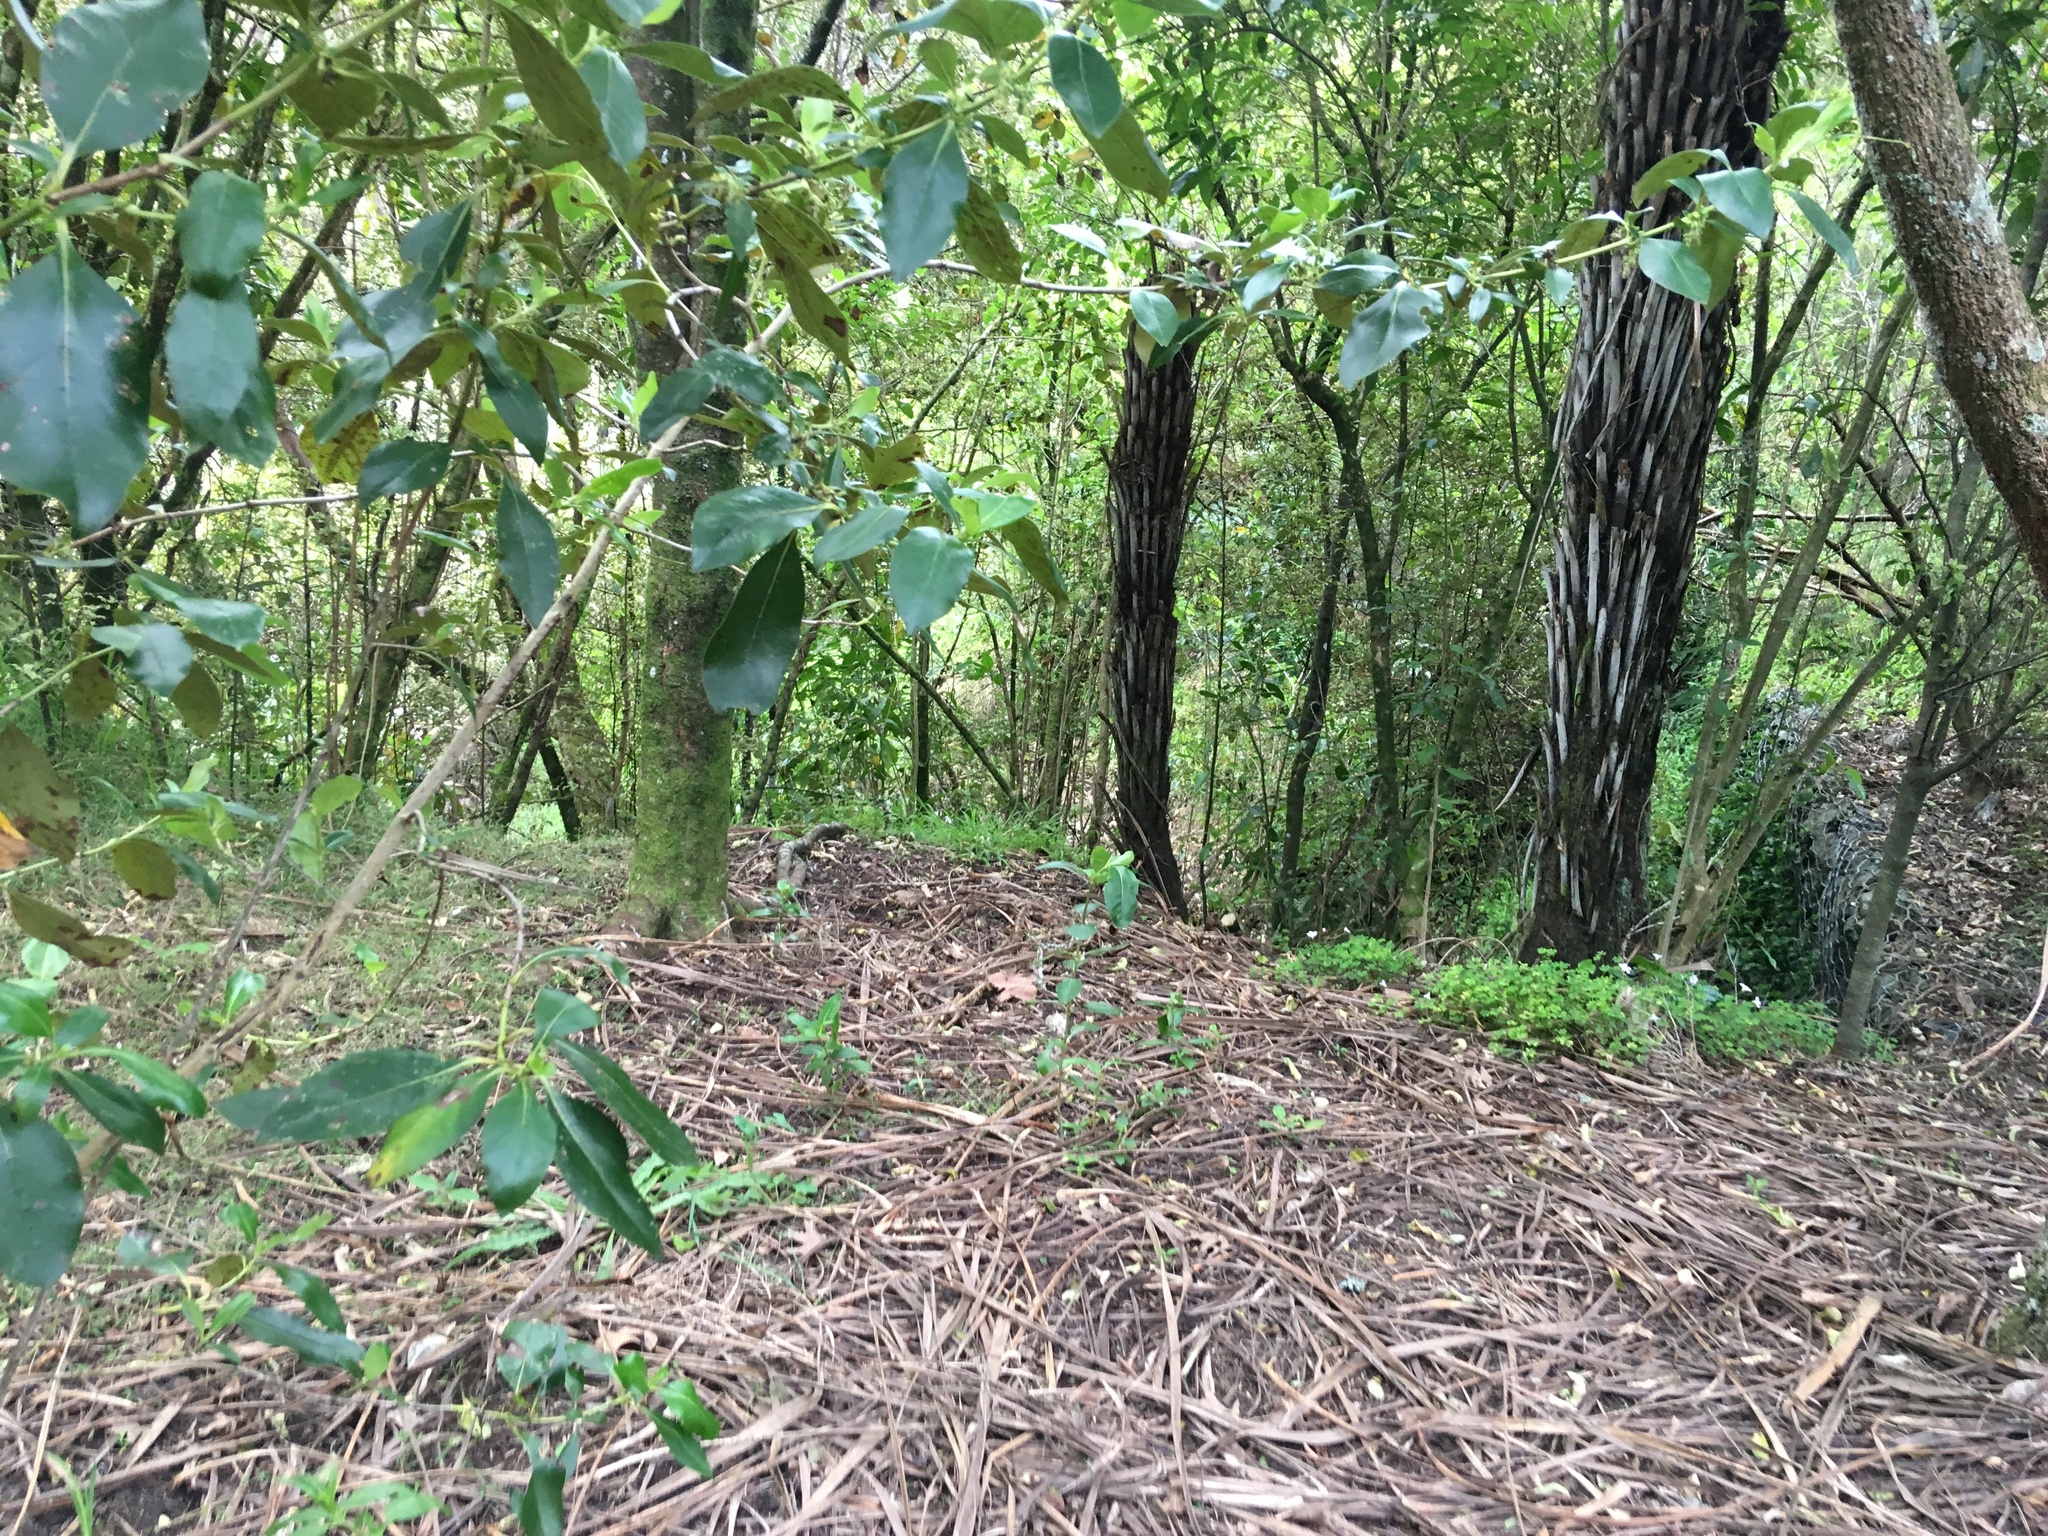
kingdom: Plantae
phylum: Tracheophyta
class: Polypodiopsida
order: Cyatheales
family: Cyatheaceae
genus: Alsophila
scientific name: Alsophila dealbata
